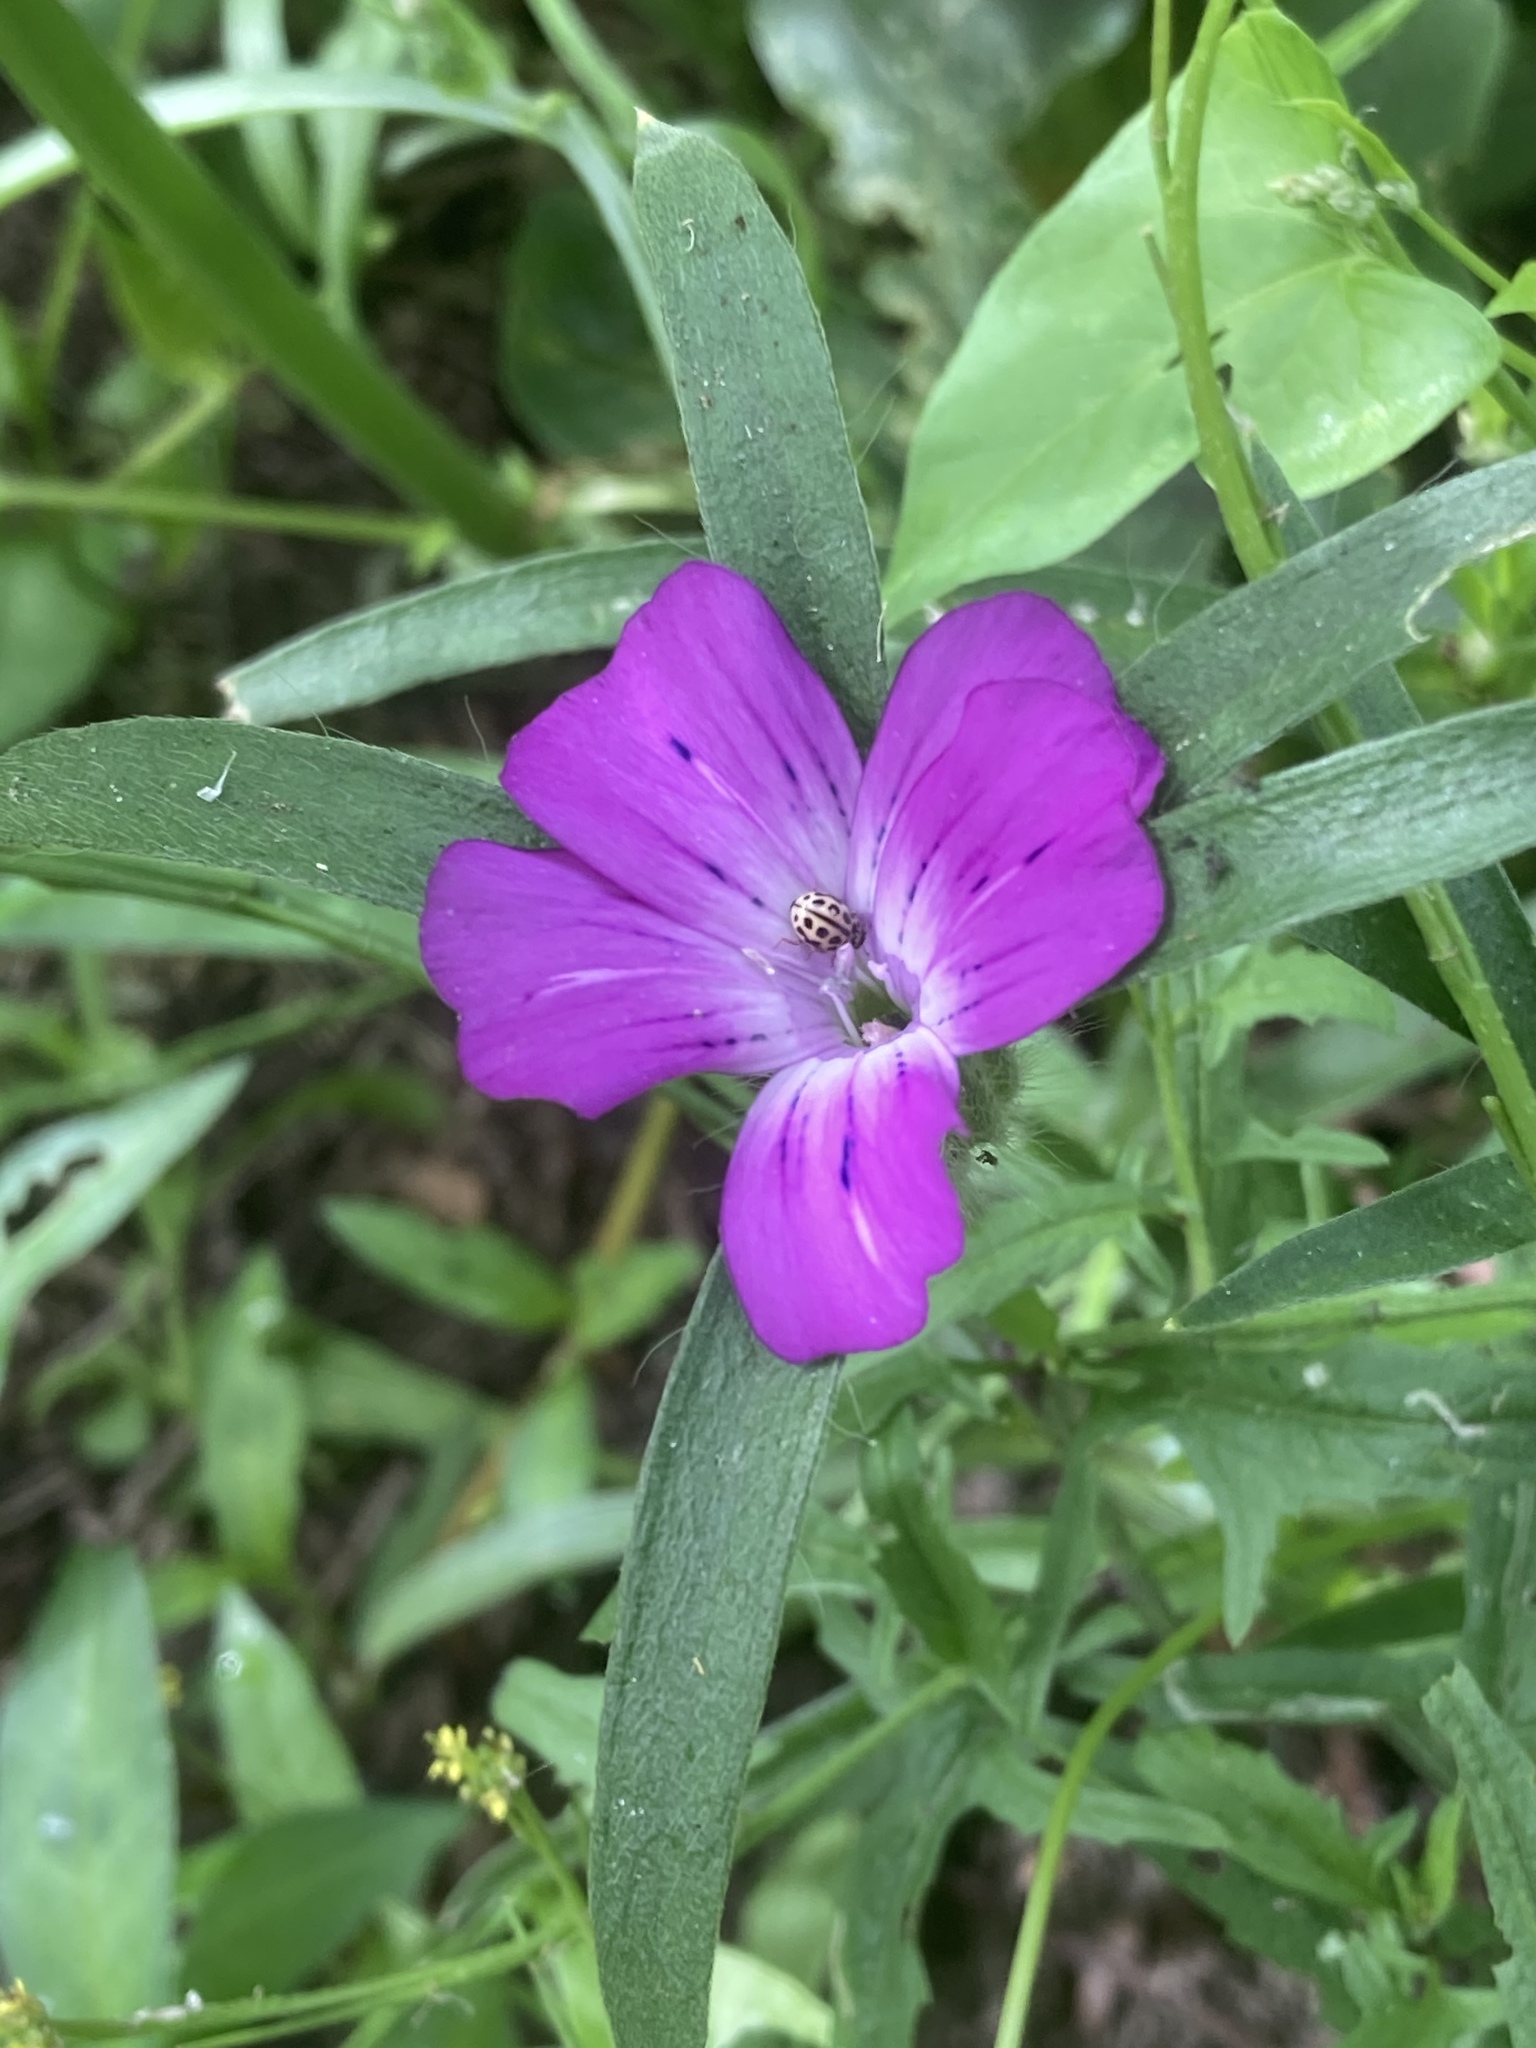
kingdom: Plantae
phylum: Tracheophyta
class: Magnoliopsida
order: Caryophyllales
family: Caryophyllaceae
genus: Agrostemma
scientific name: Agrostemma githago
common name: Common corncockle
